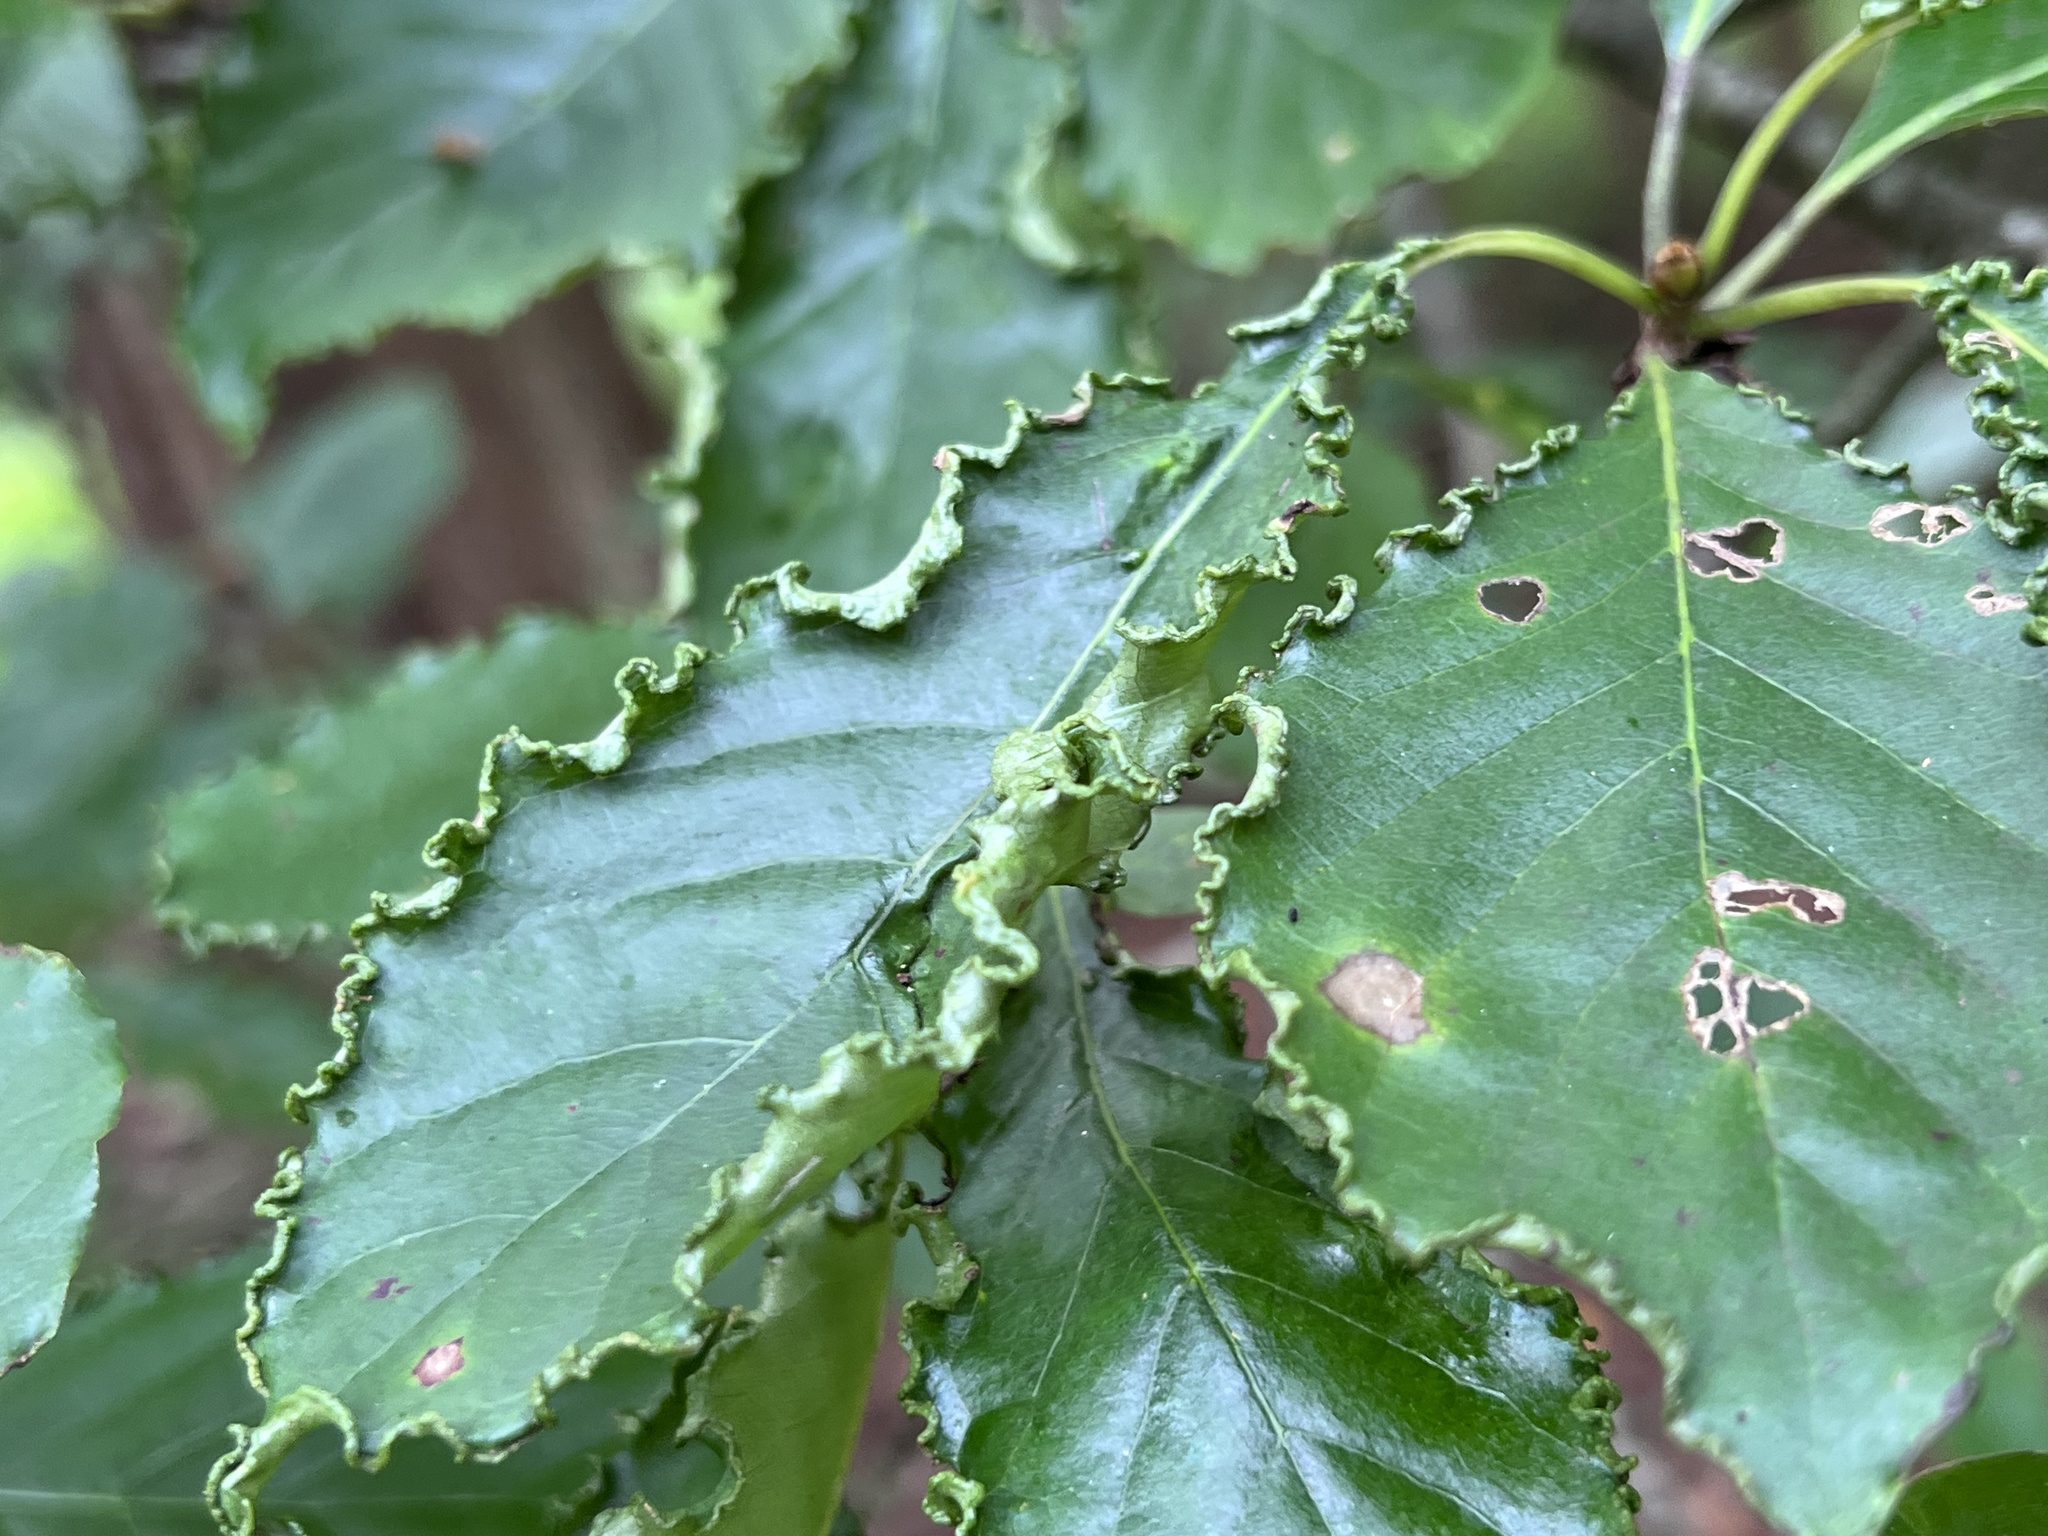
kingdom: Animalia
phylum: Arthropoda
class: Arachnida
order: Trombidiformes
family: Eriophyidae
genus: Aceria
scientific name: Aceria
